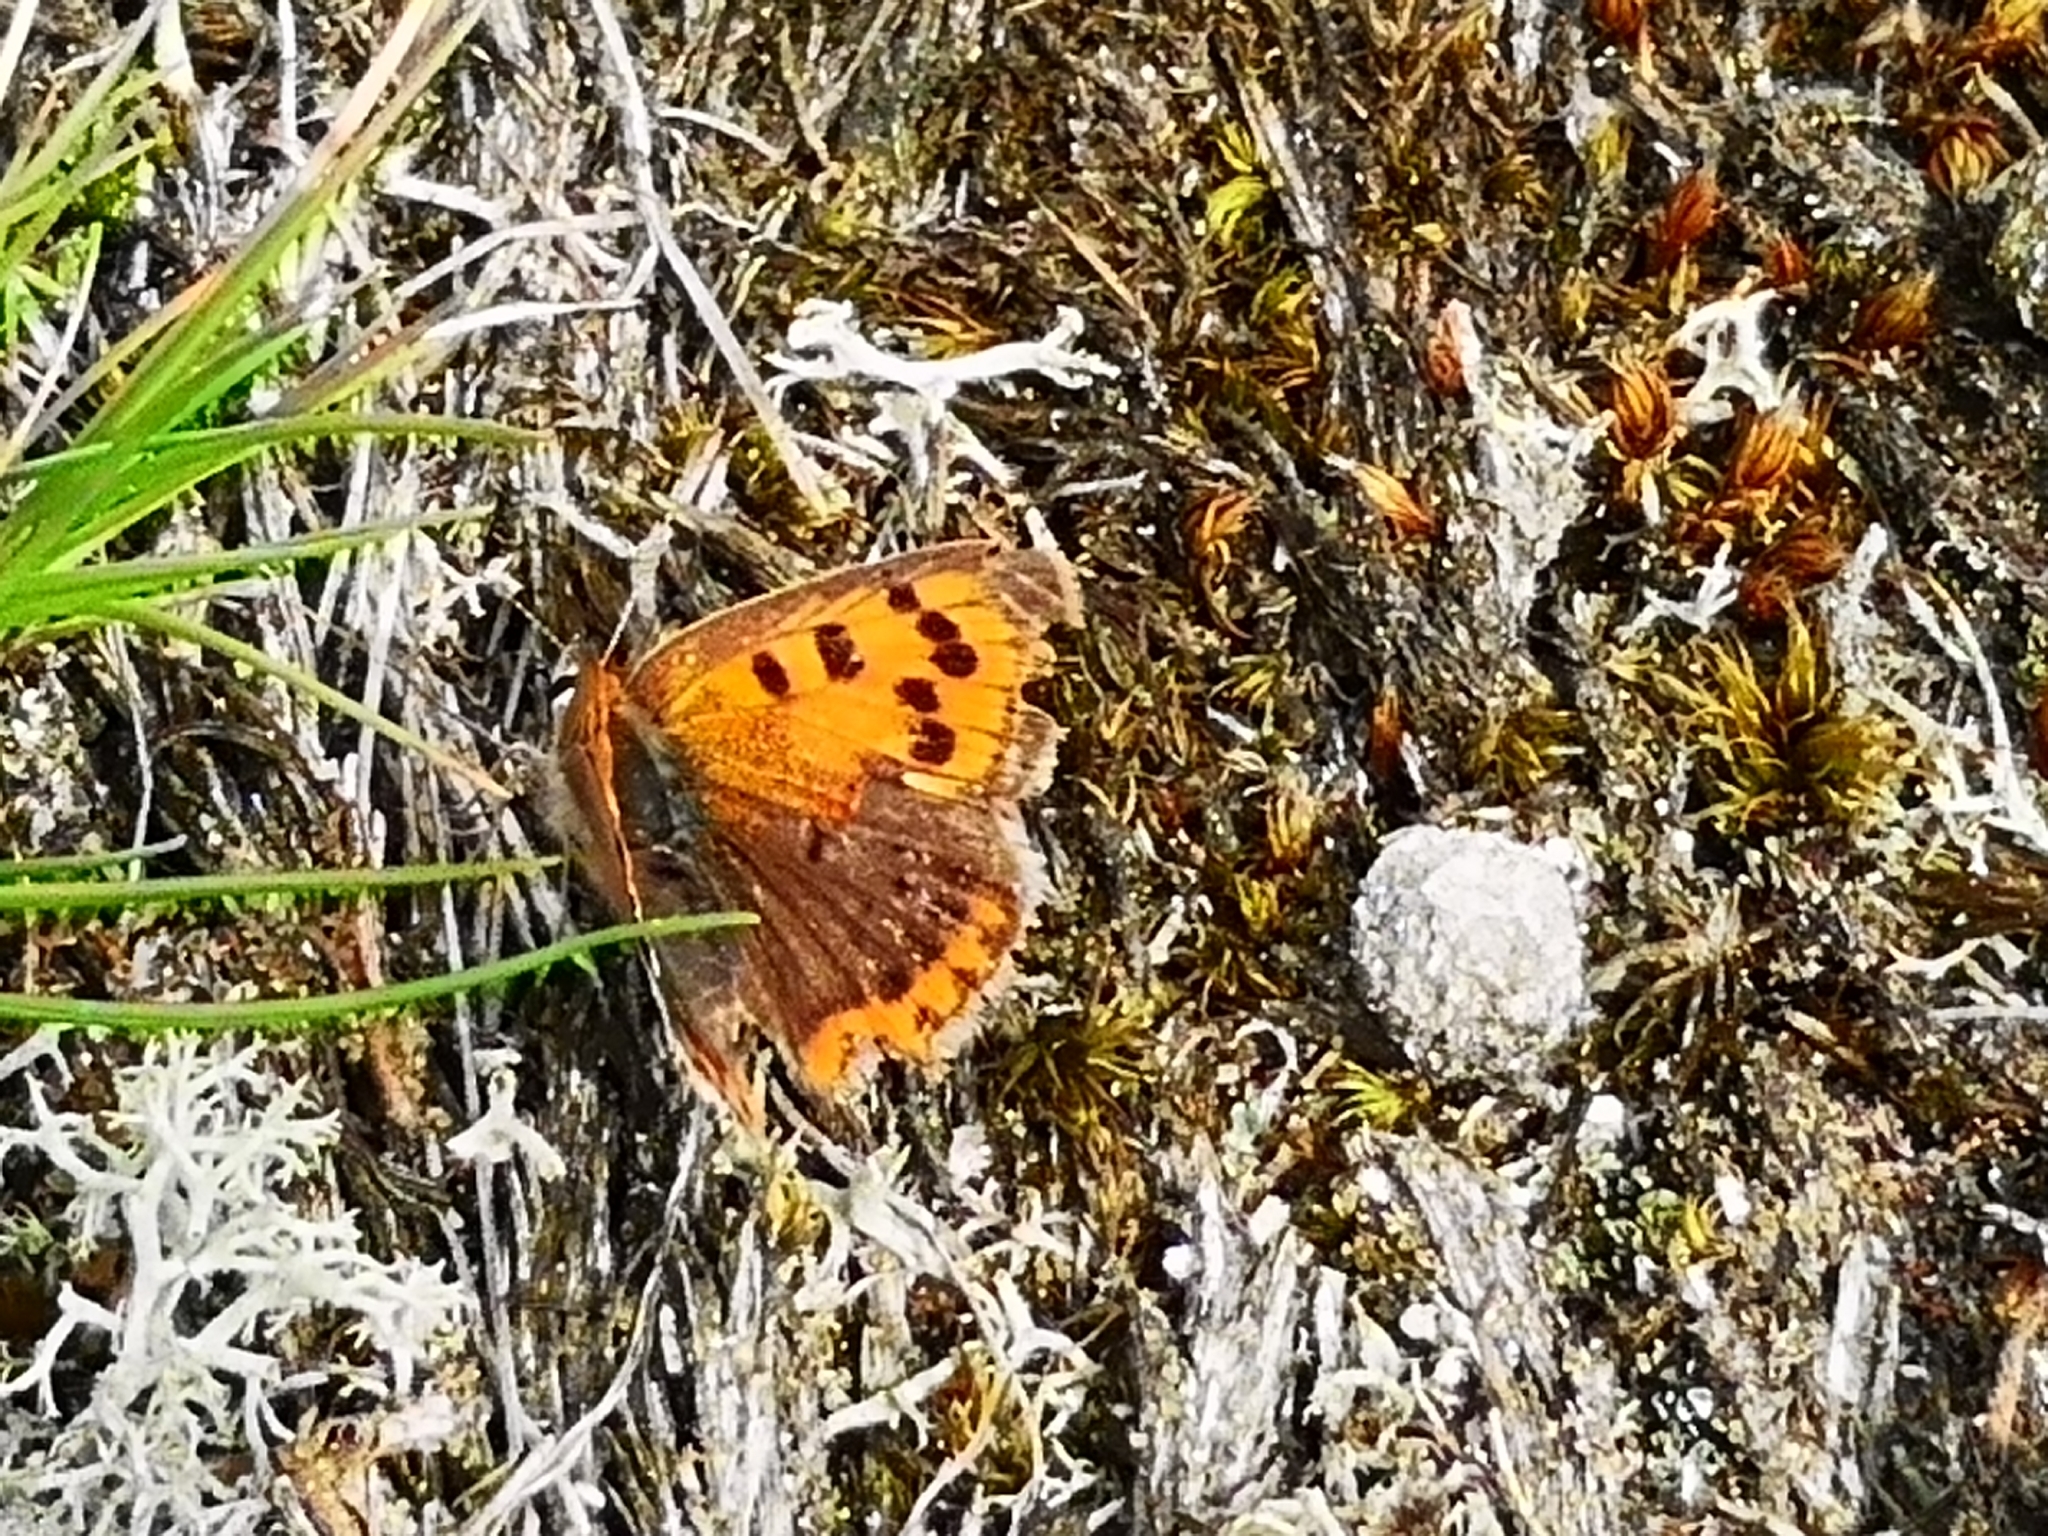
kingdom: Animalia
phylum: Arthropoda
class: Insecta
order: Lepidoptera
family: Lycaenidae
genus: Lycaena
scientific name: Lycaena phlaeas
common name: Small copper
